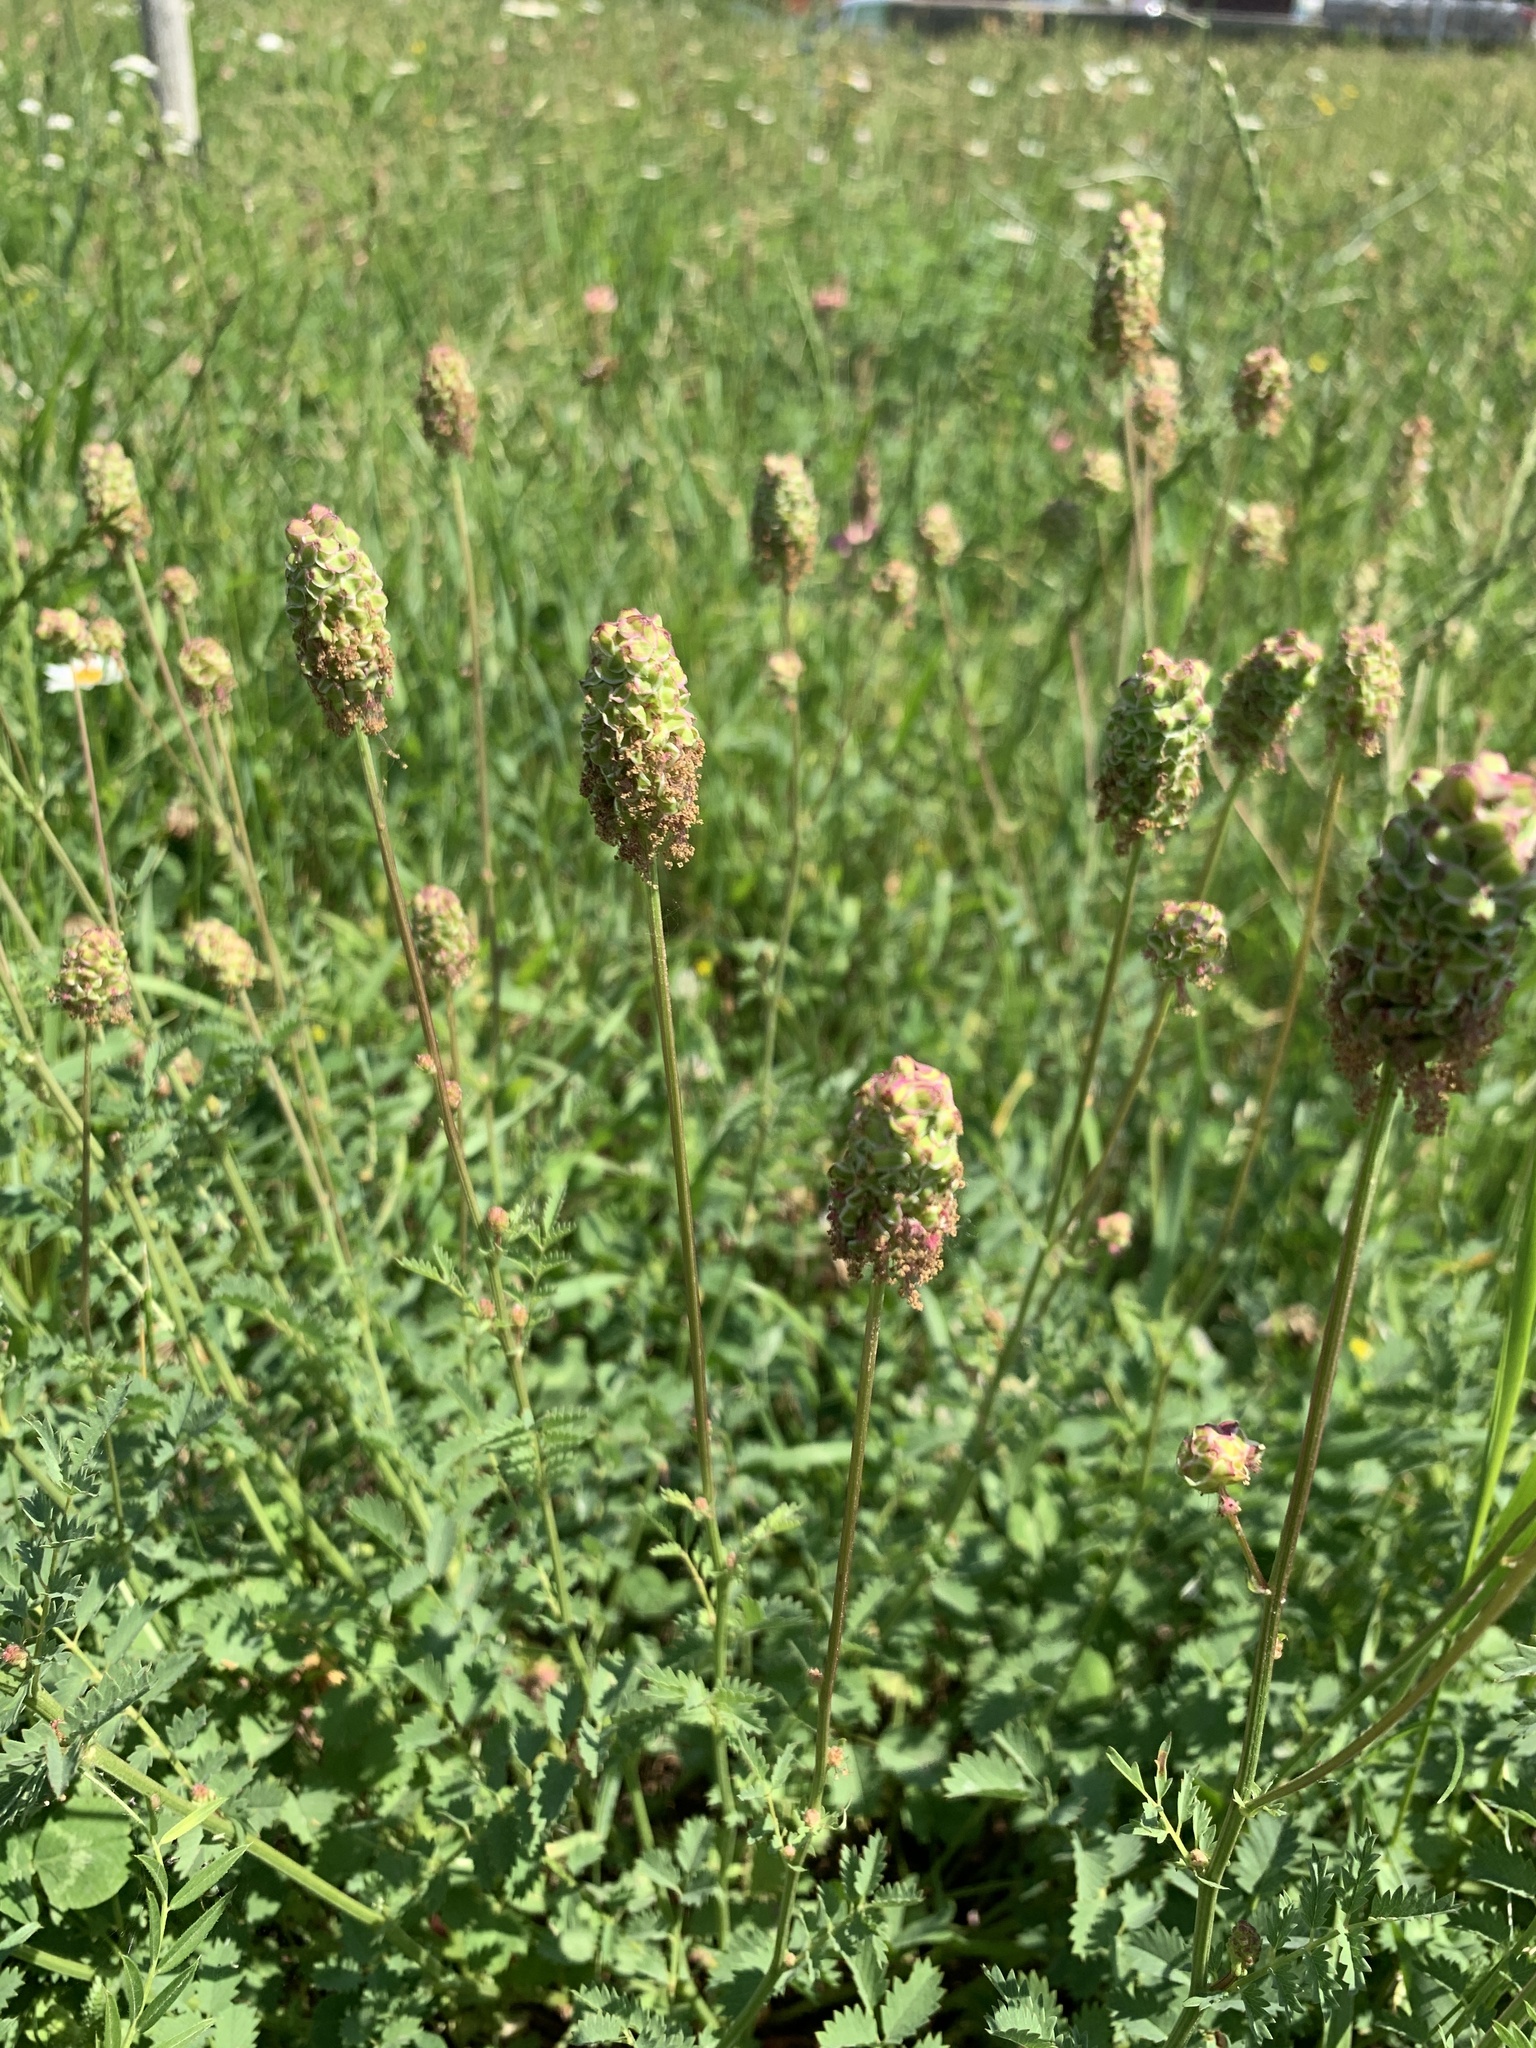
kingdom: Plantae
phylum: Tracheophyta
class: Magnoliopsida
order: Rosales
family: Rosaceae
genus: Poterium
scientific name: Poterium sanguisorba
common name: Salad burnet
